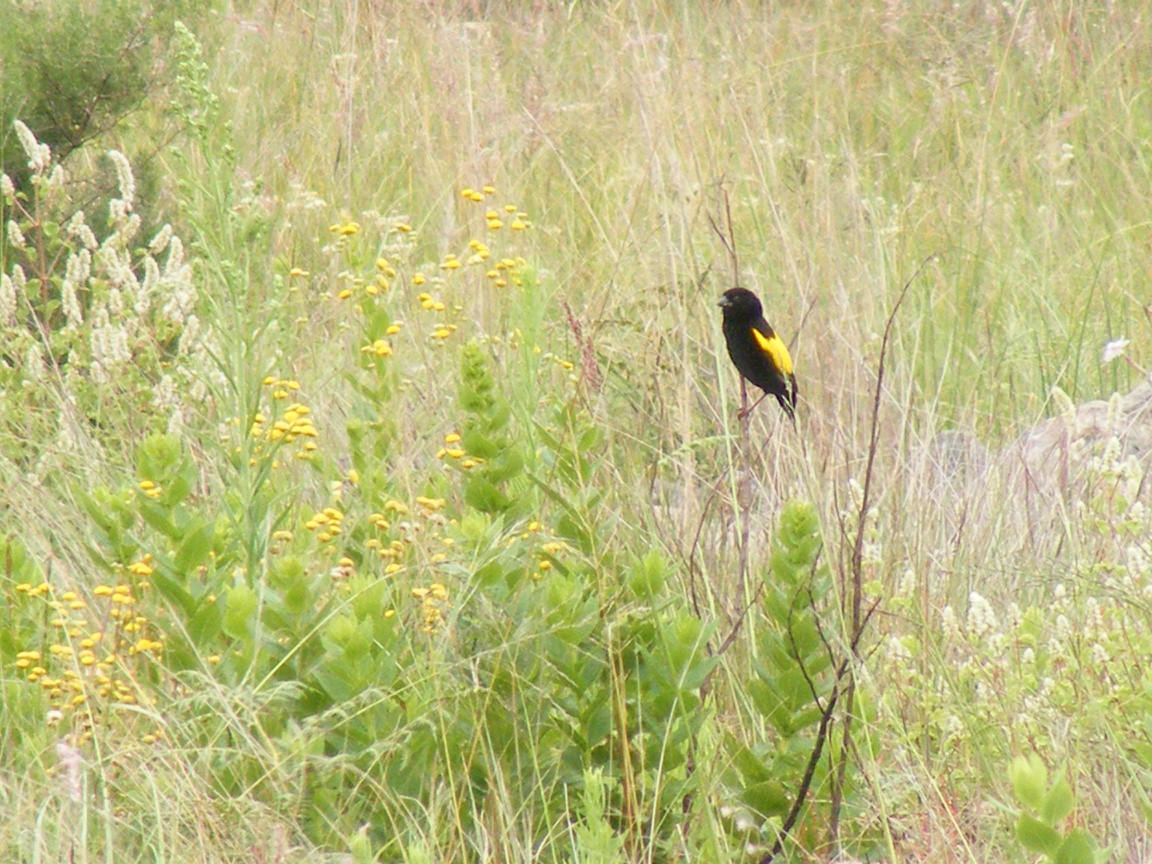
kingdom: Animalia
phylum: Chordata
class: Aves
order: Passeriformes
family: Ploceidae
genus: Euplectes
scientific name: Euplectes capensis
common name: Yellow bishop
